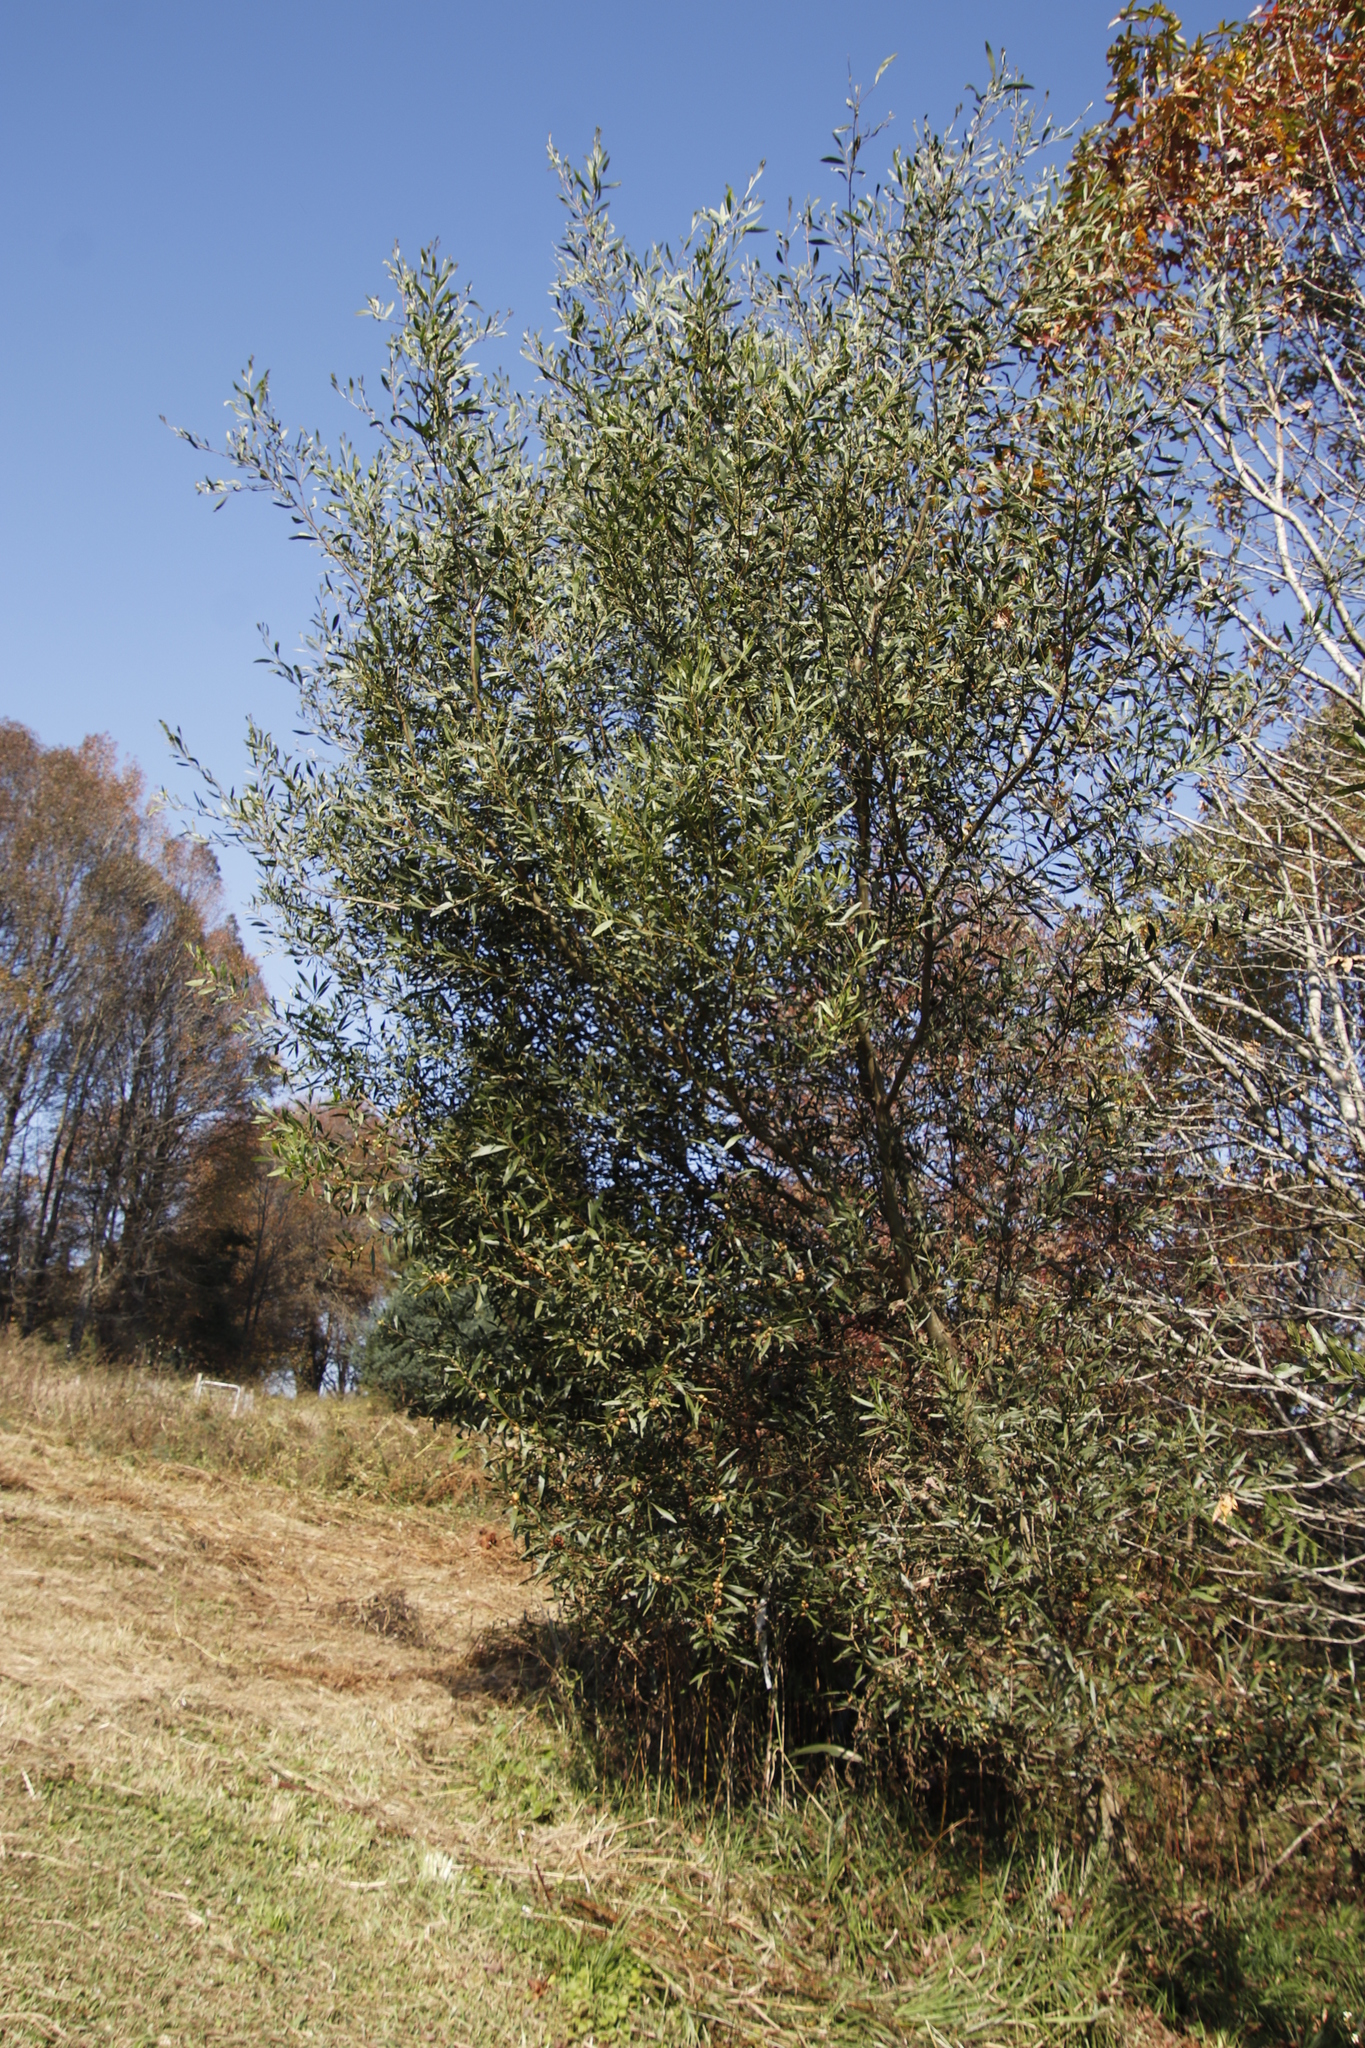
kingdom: Plantae
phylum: Tracheophyta
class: Magnoliopsida
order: Fabales
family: Fabaceae
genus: Acacia
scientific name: Acacia longifolia
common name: Sydney golden wattle
